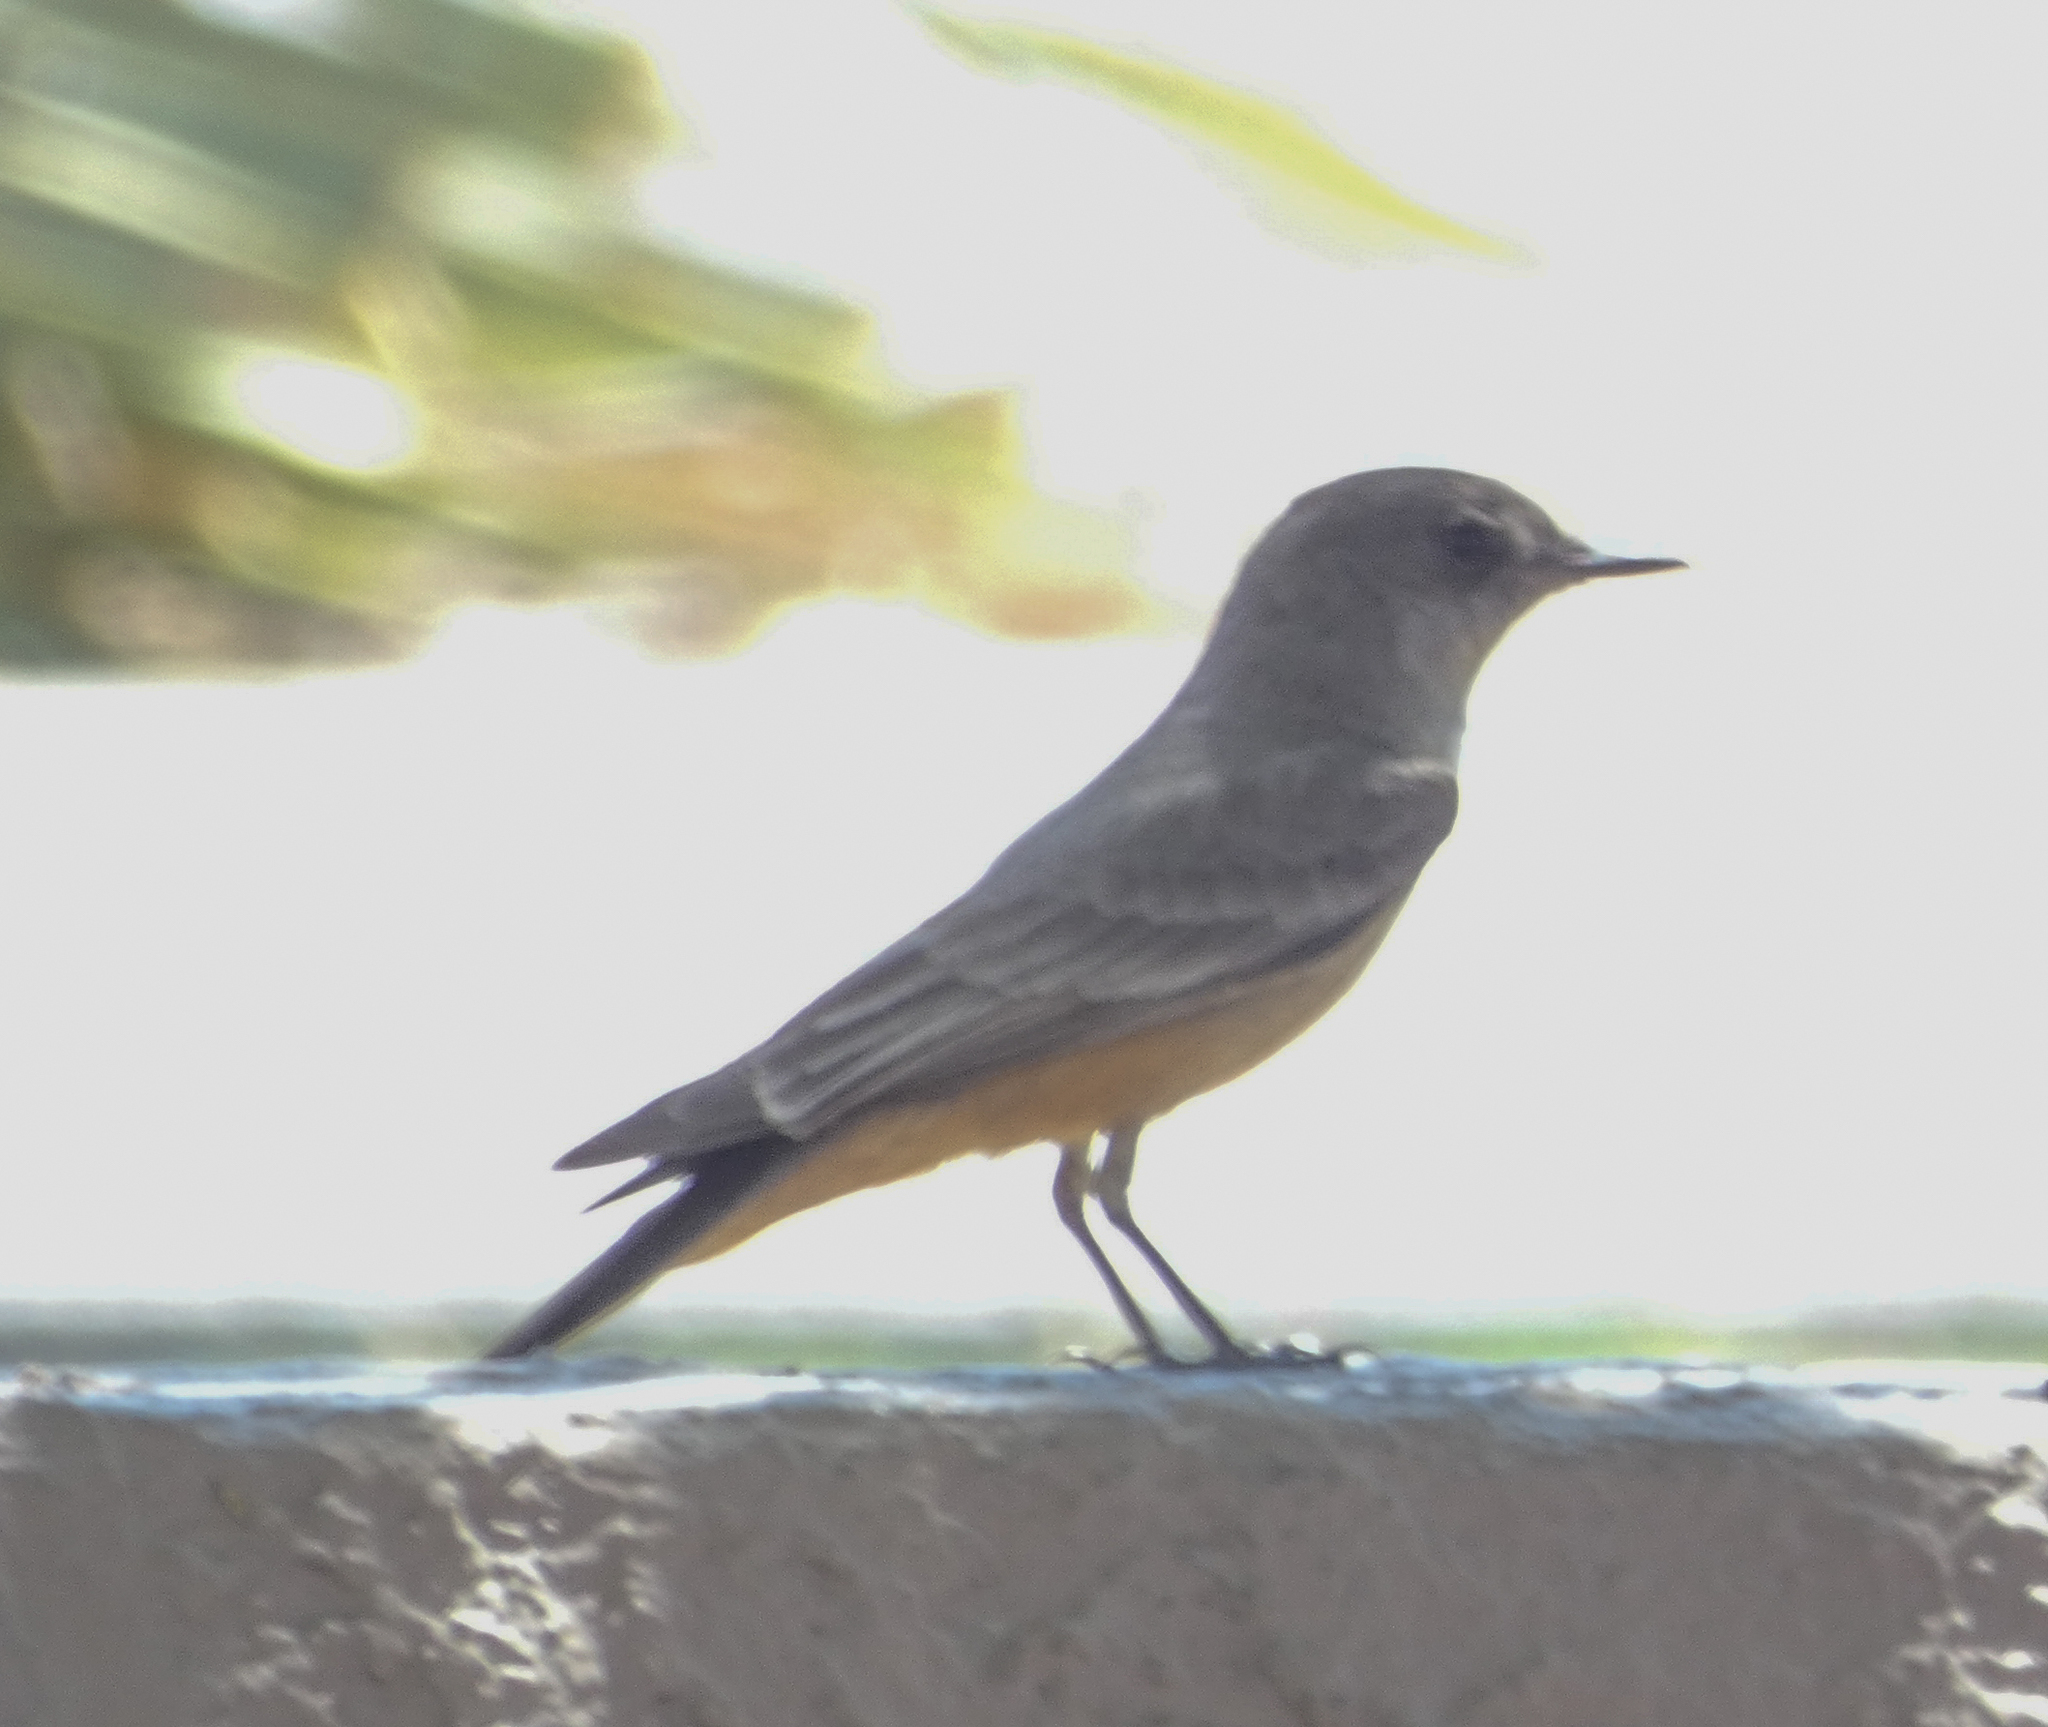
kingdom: Animalia
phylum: Chordata
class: Aves
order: Passeriformes
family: Tyrannidae
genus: Sayornis
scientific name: Sayornis saya
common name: Say's phoebe
